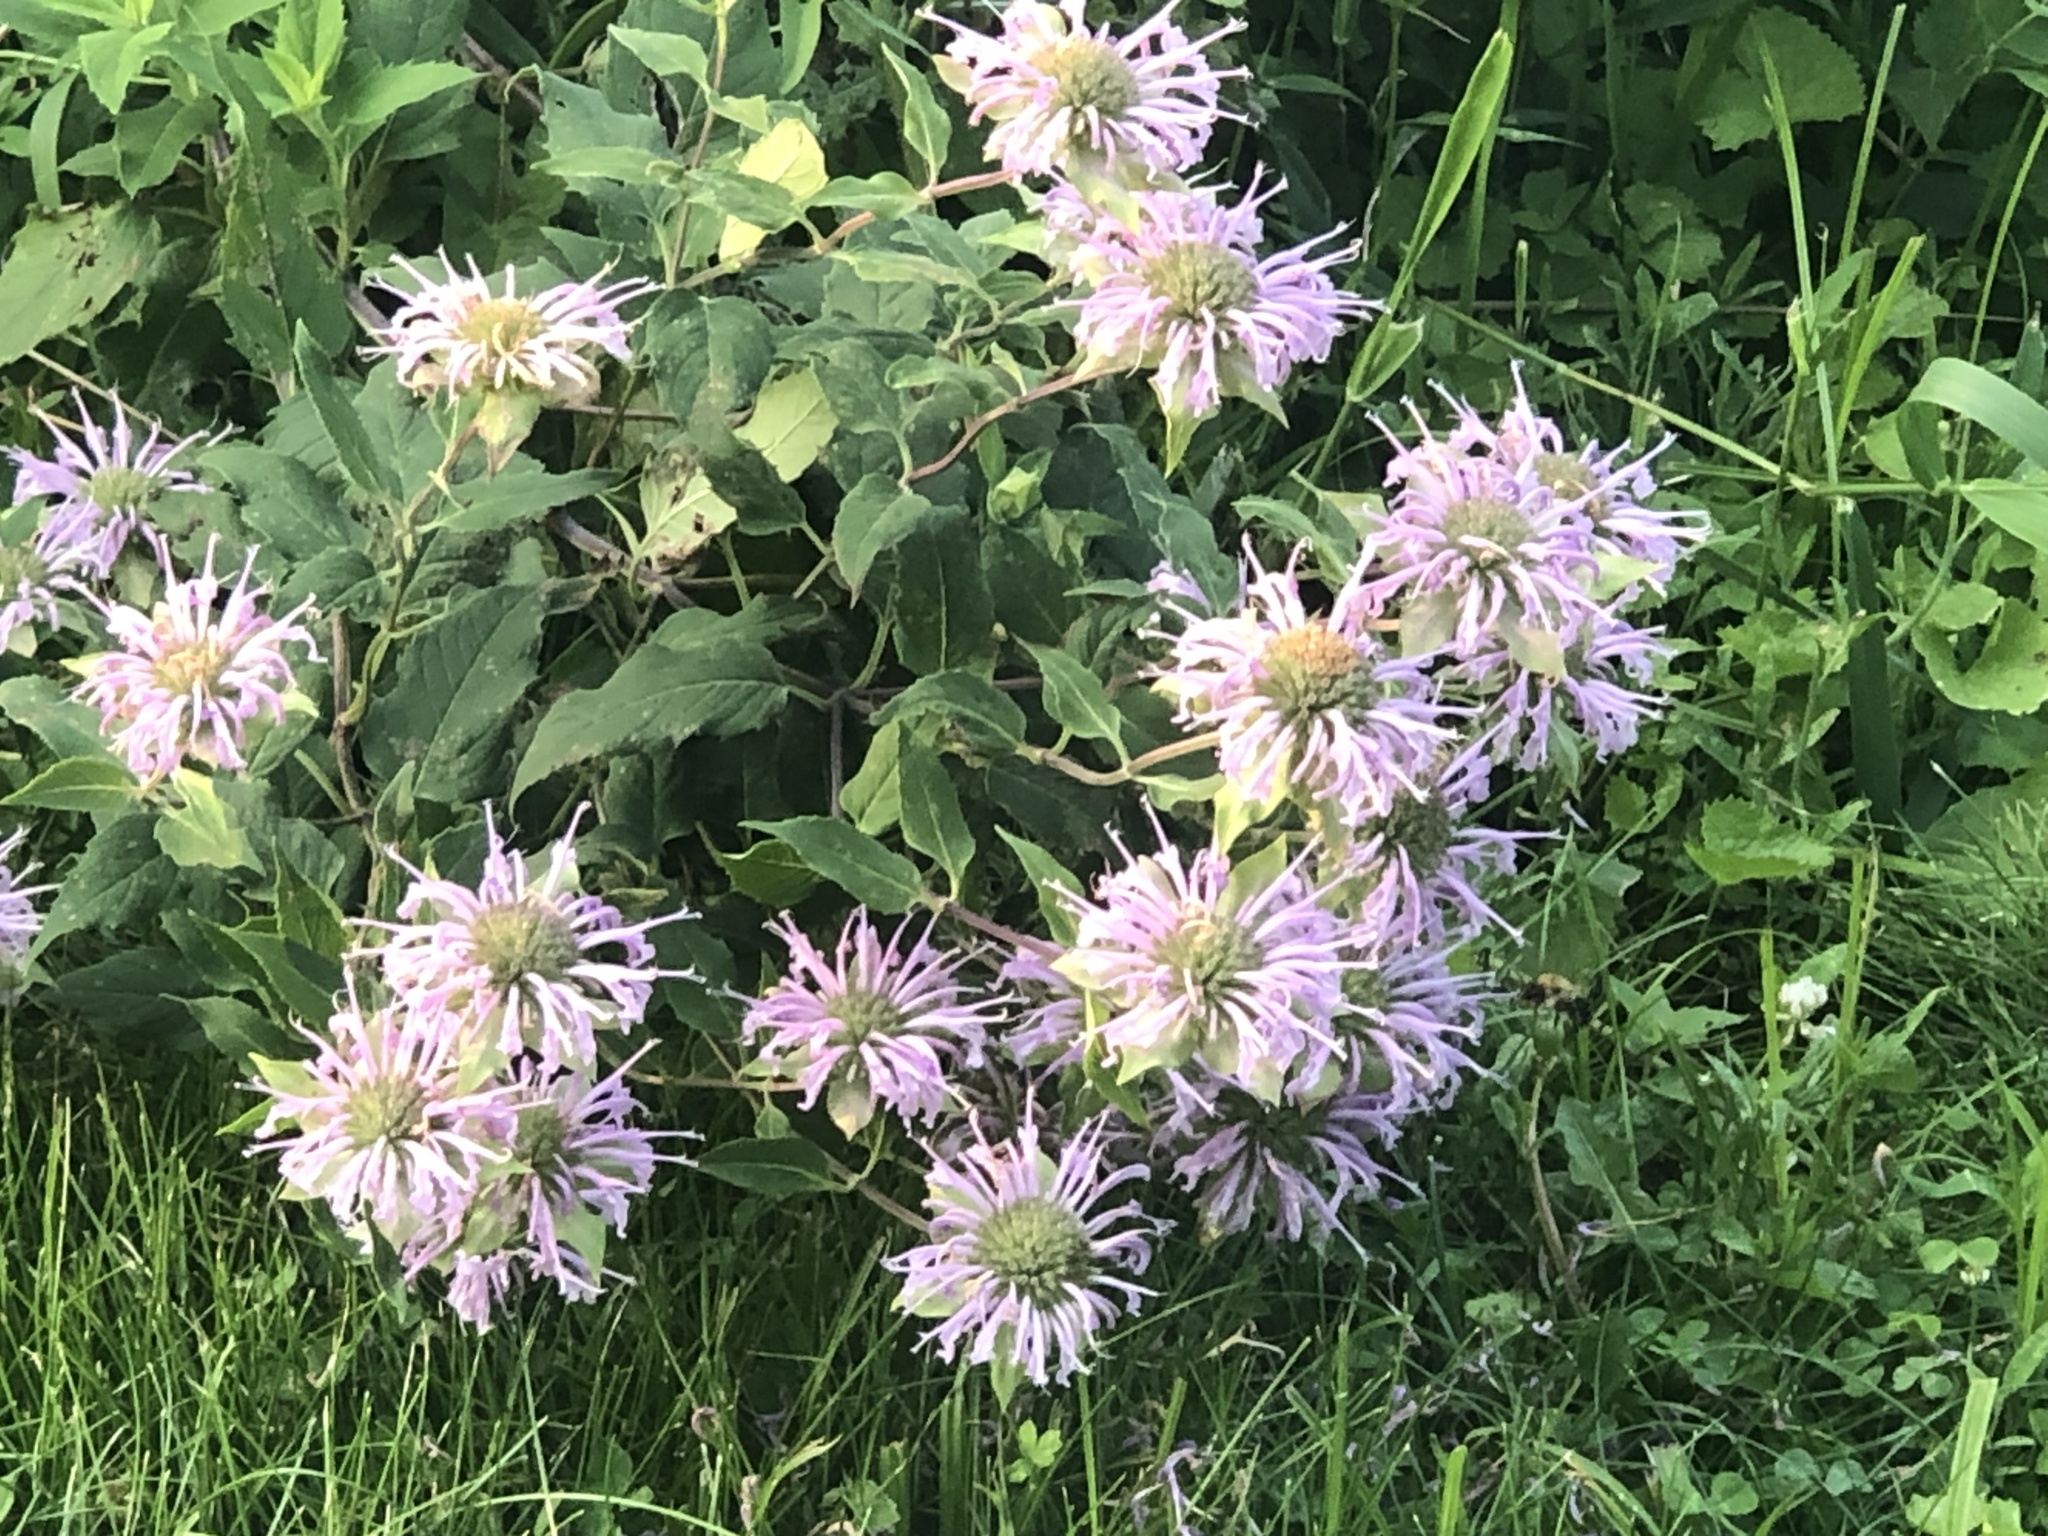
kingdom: Plantae
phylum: Tracheophyta
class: Magnoliopsida
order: Lamiales
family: Lamiaceae
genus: Monarda
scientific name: Monarda fistulosa
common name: Purple beebalm
